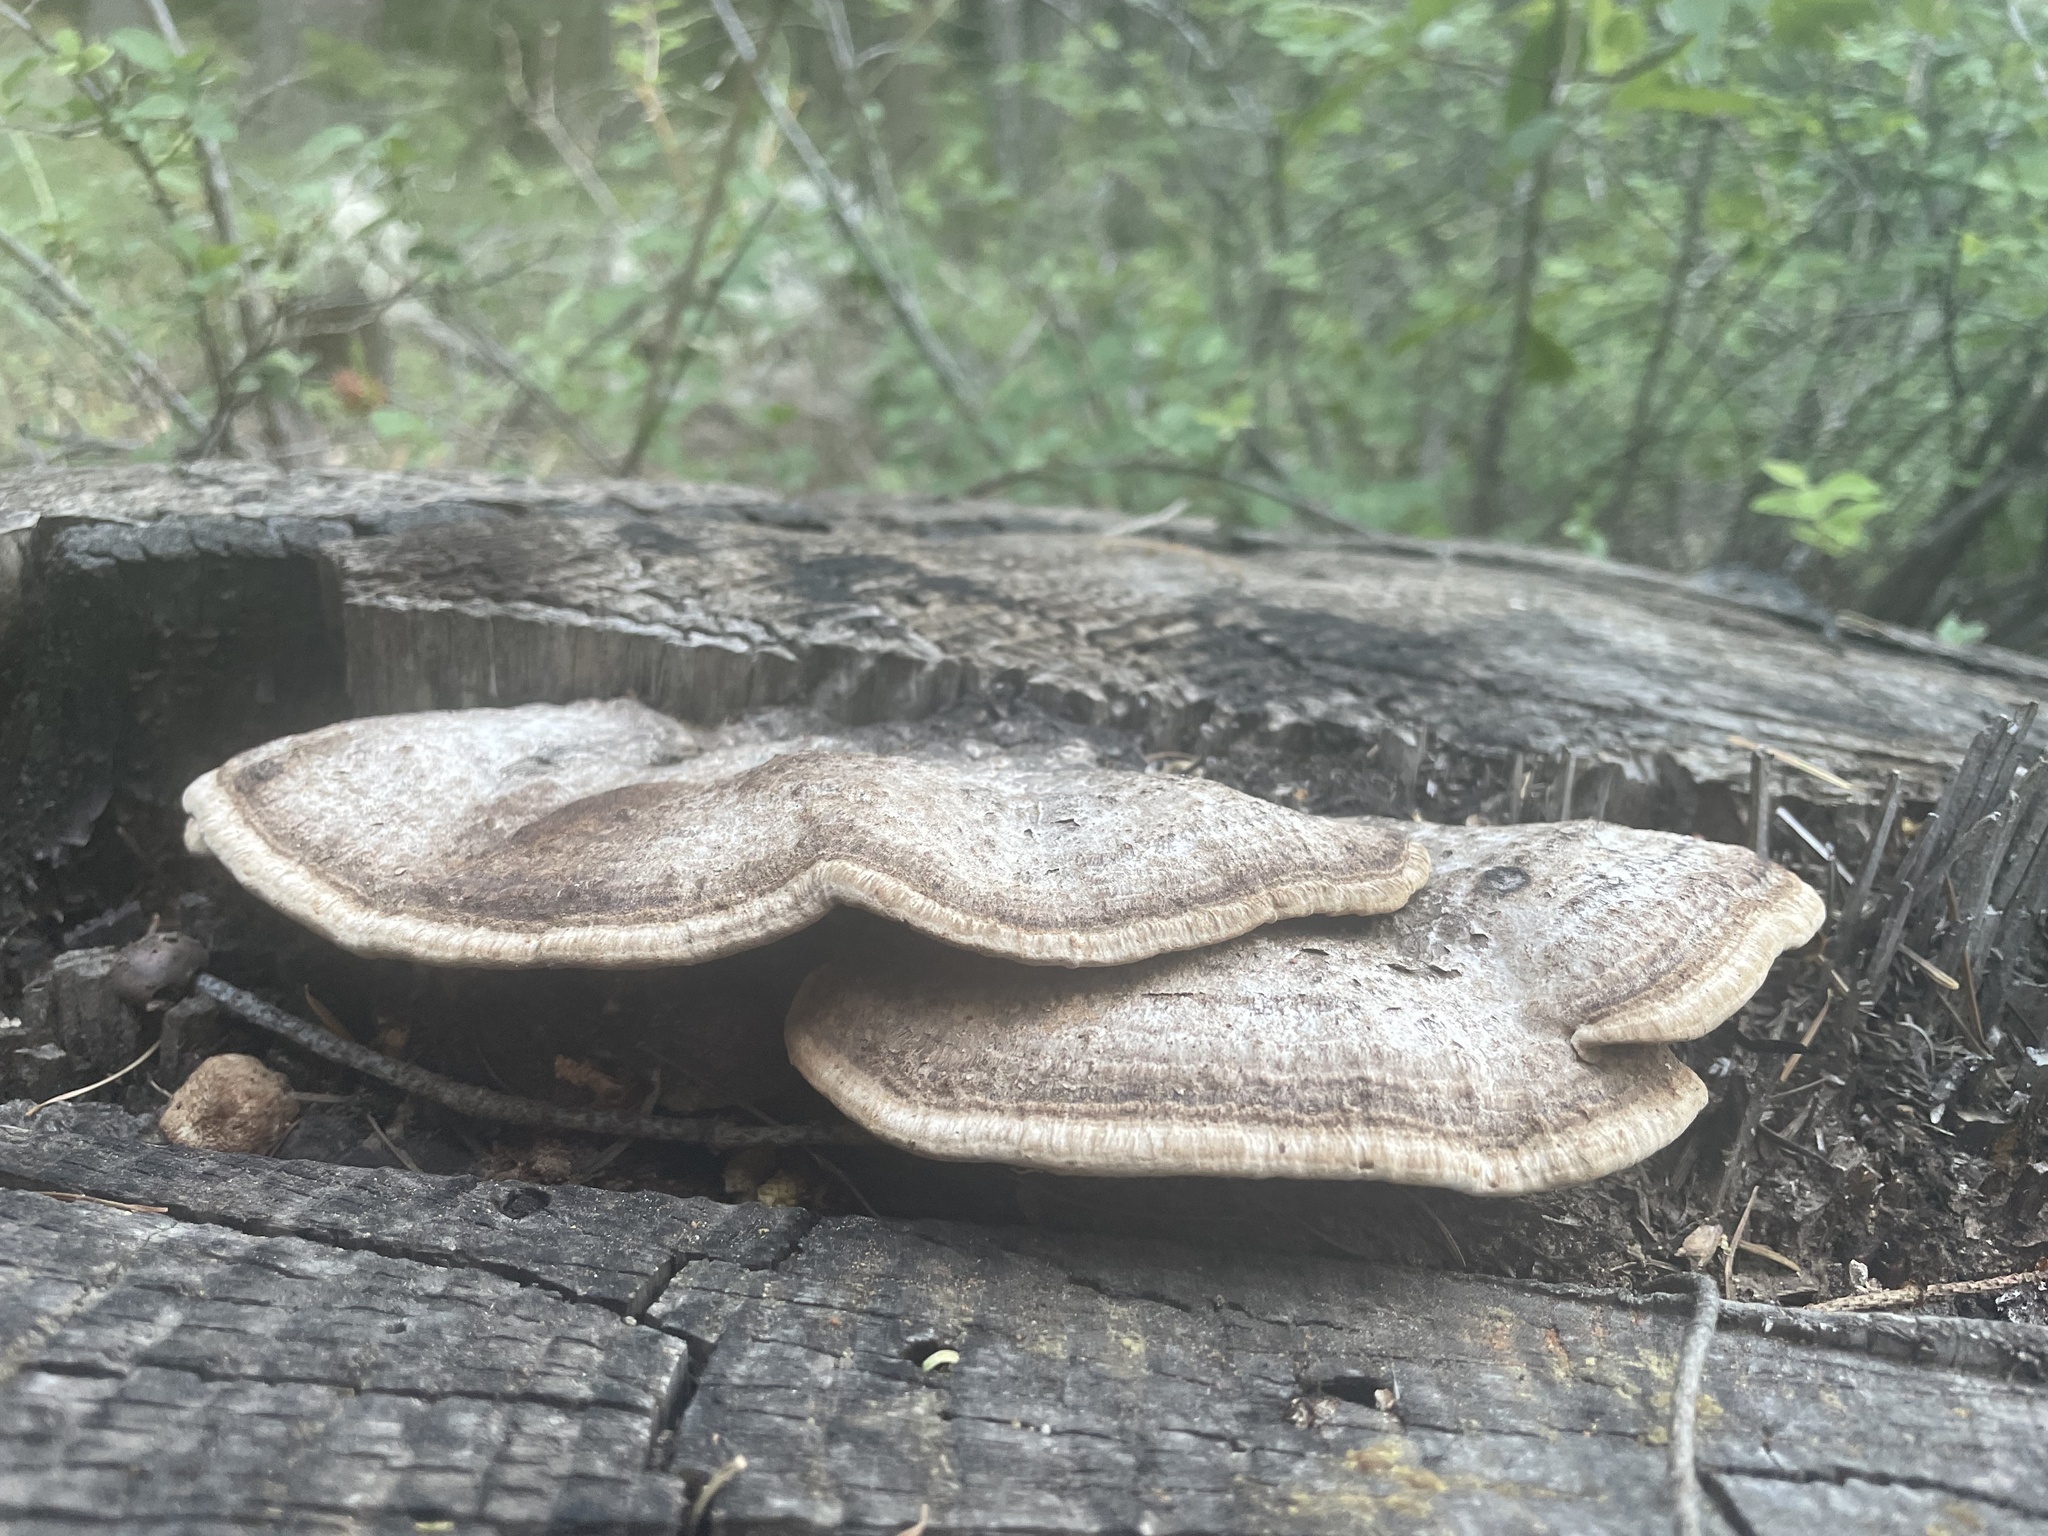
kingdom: Fungi
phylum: Basidiomycota
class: Agaricomycetes
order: Polyporales
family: Fomitopsidaceae
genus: Rhodofomes
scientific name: Rhodofomes cajanderi
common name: Rosy conk
